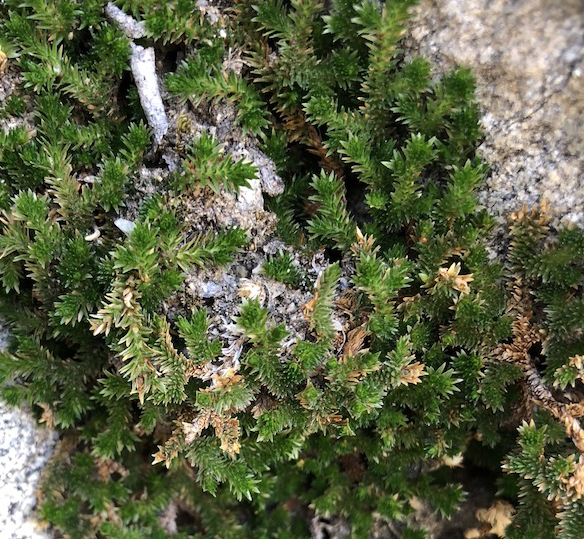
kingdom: Plantae
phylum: Tracheophyta
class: Lycopodiopsida
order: Selaginellales
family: Selaginellaceae
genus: Selaginella
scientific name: Selaginella eremophila
